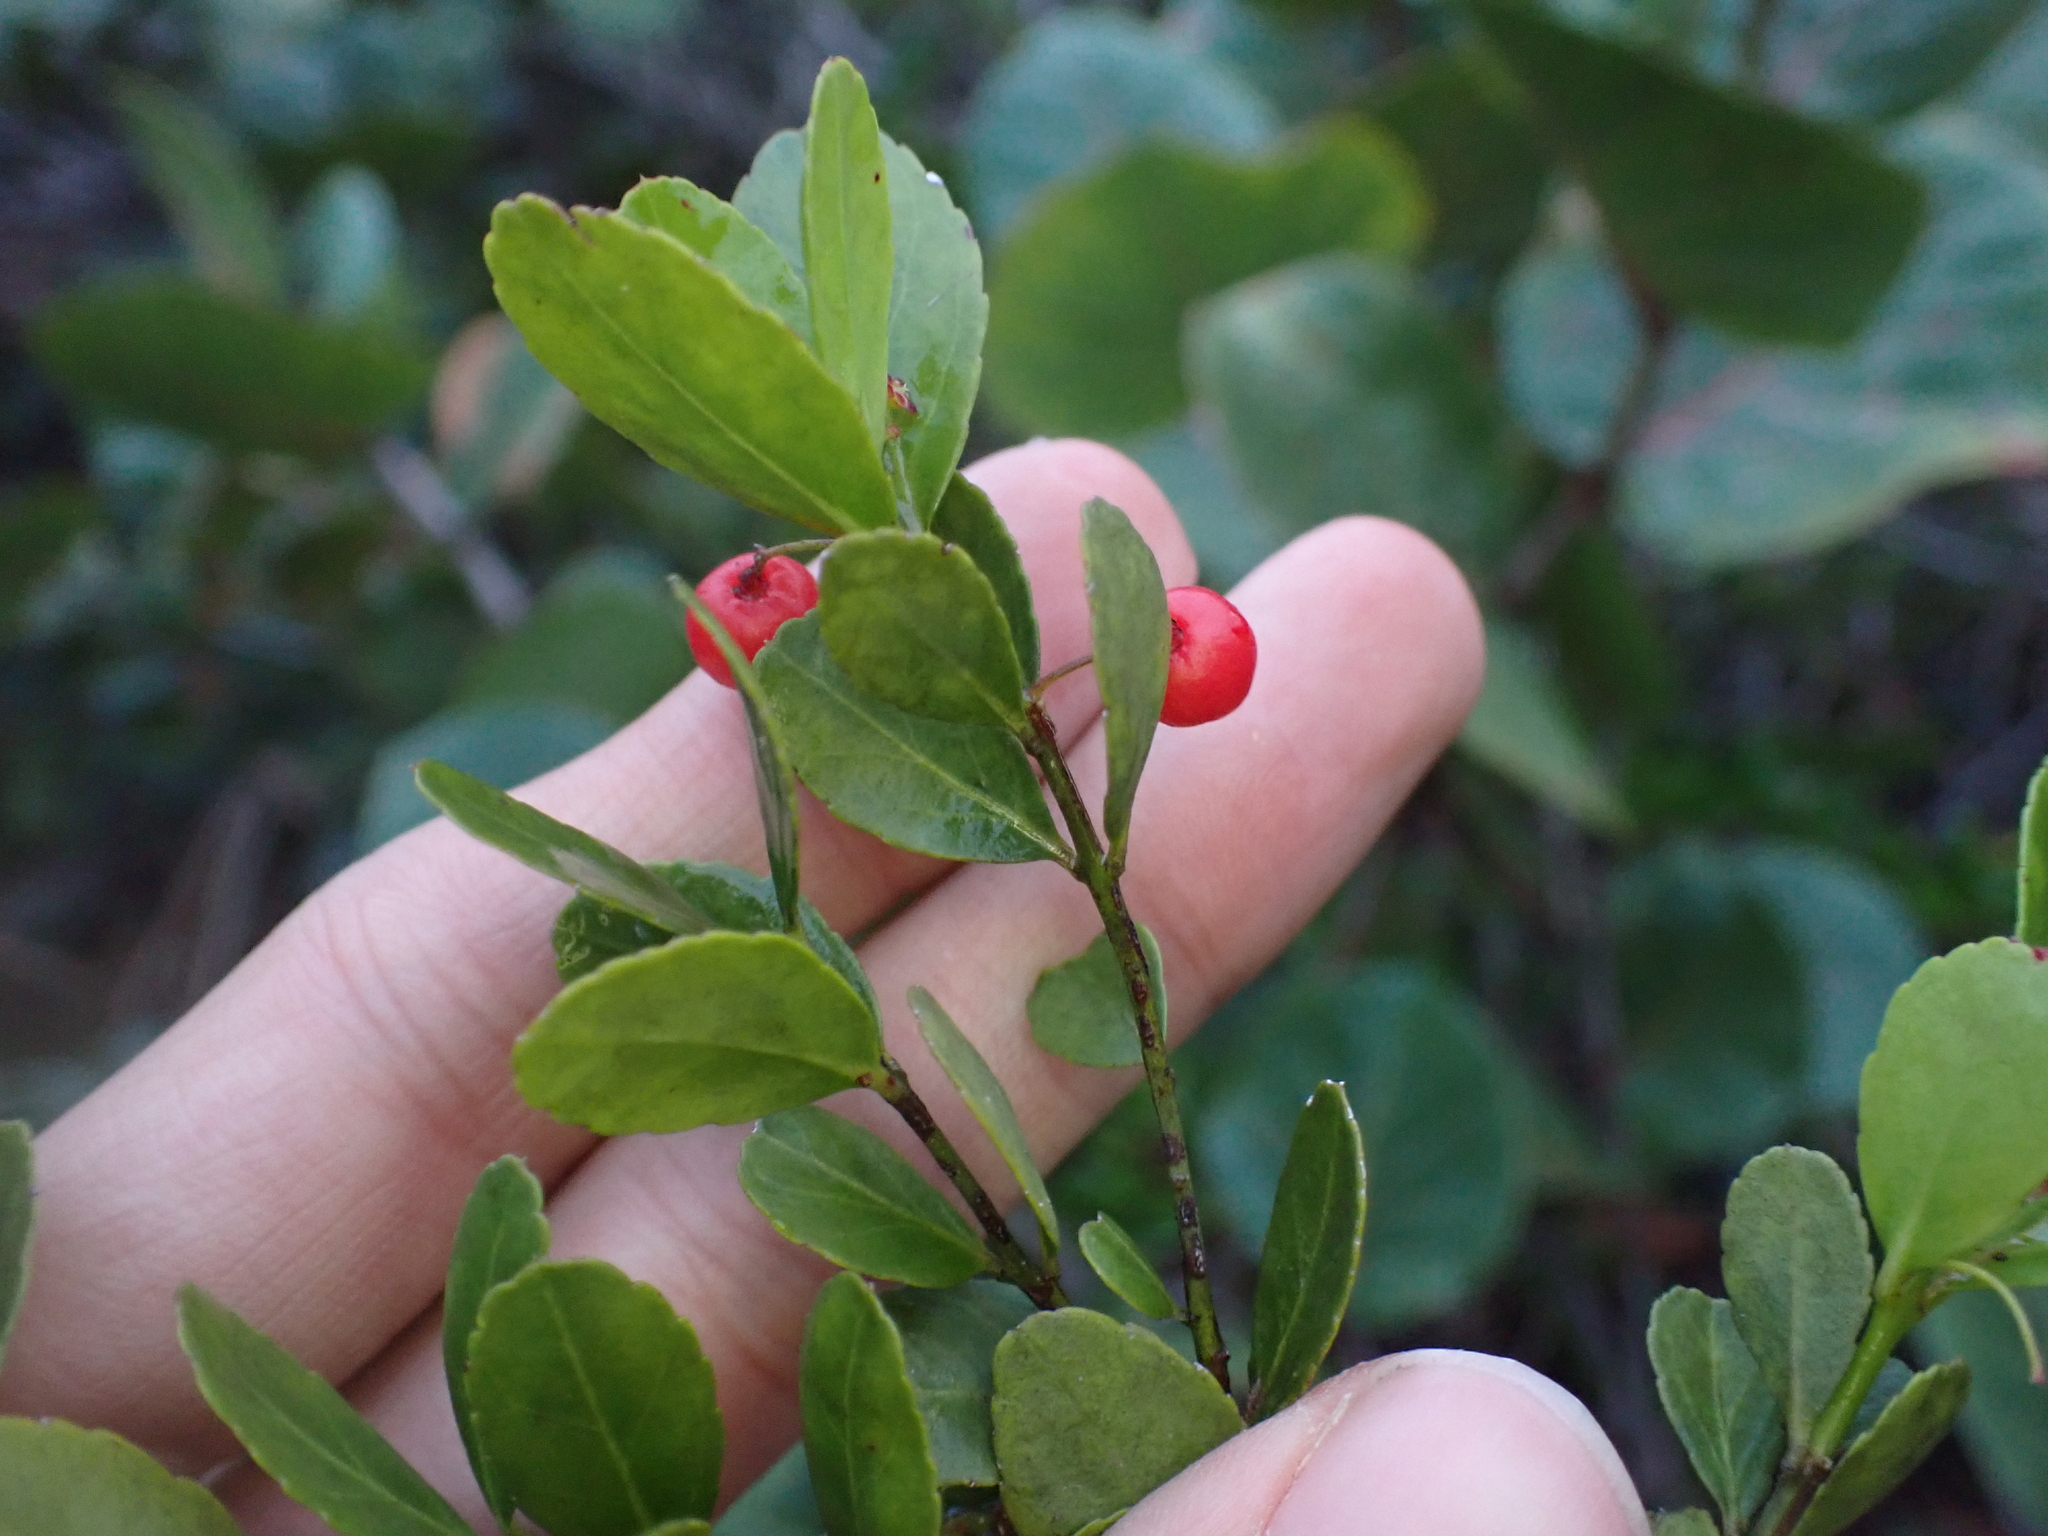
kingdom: Plantae
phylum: Tracheophyta
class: Magnoliopsida
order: Celastrales
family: Celastraceae
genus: Crossopetalum
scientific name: Crossopetalum rhacoma
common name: Maidenberry
